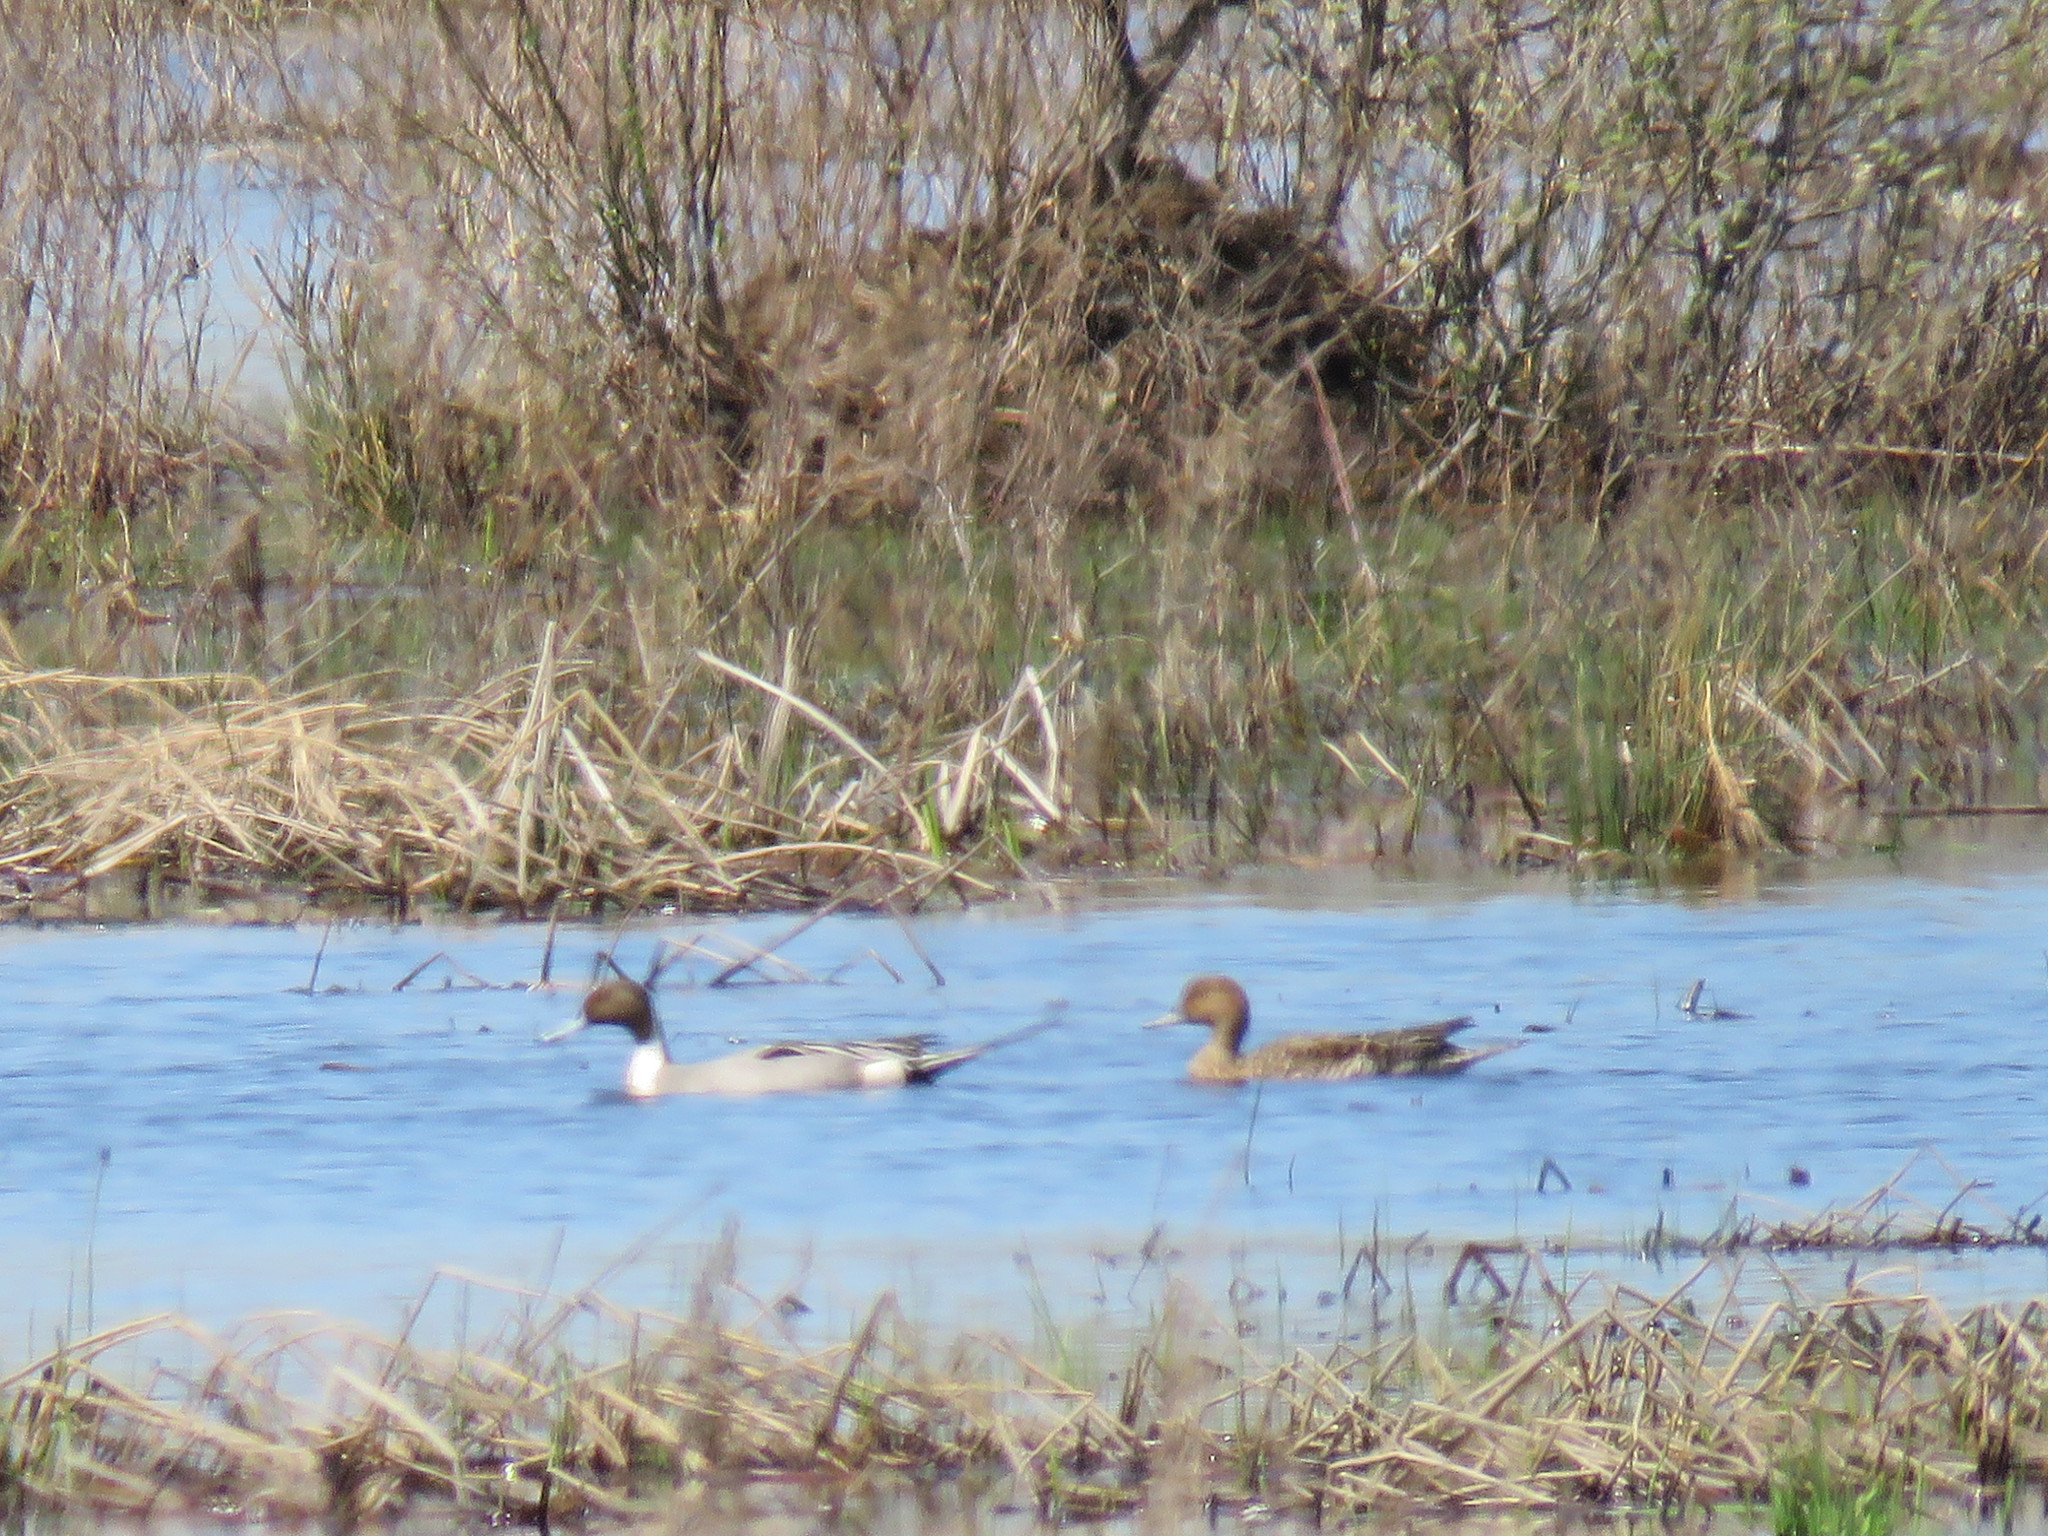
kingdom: Animalia
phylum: Chordata
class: Aves
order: Anseriformes
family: Anatidae
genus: Anas
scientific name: Anas acuta
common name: Northern pintail
